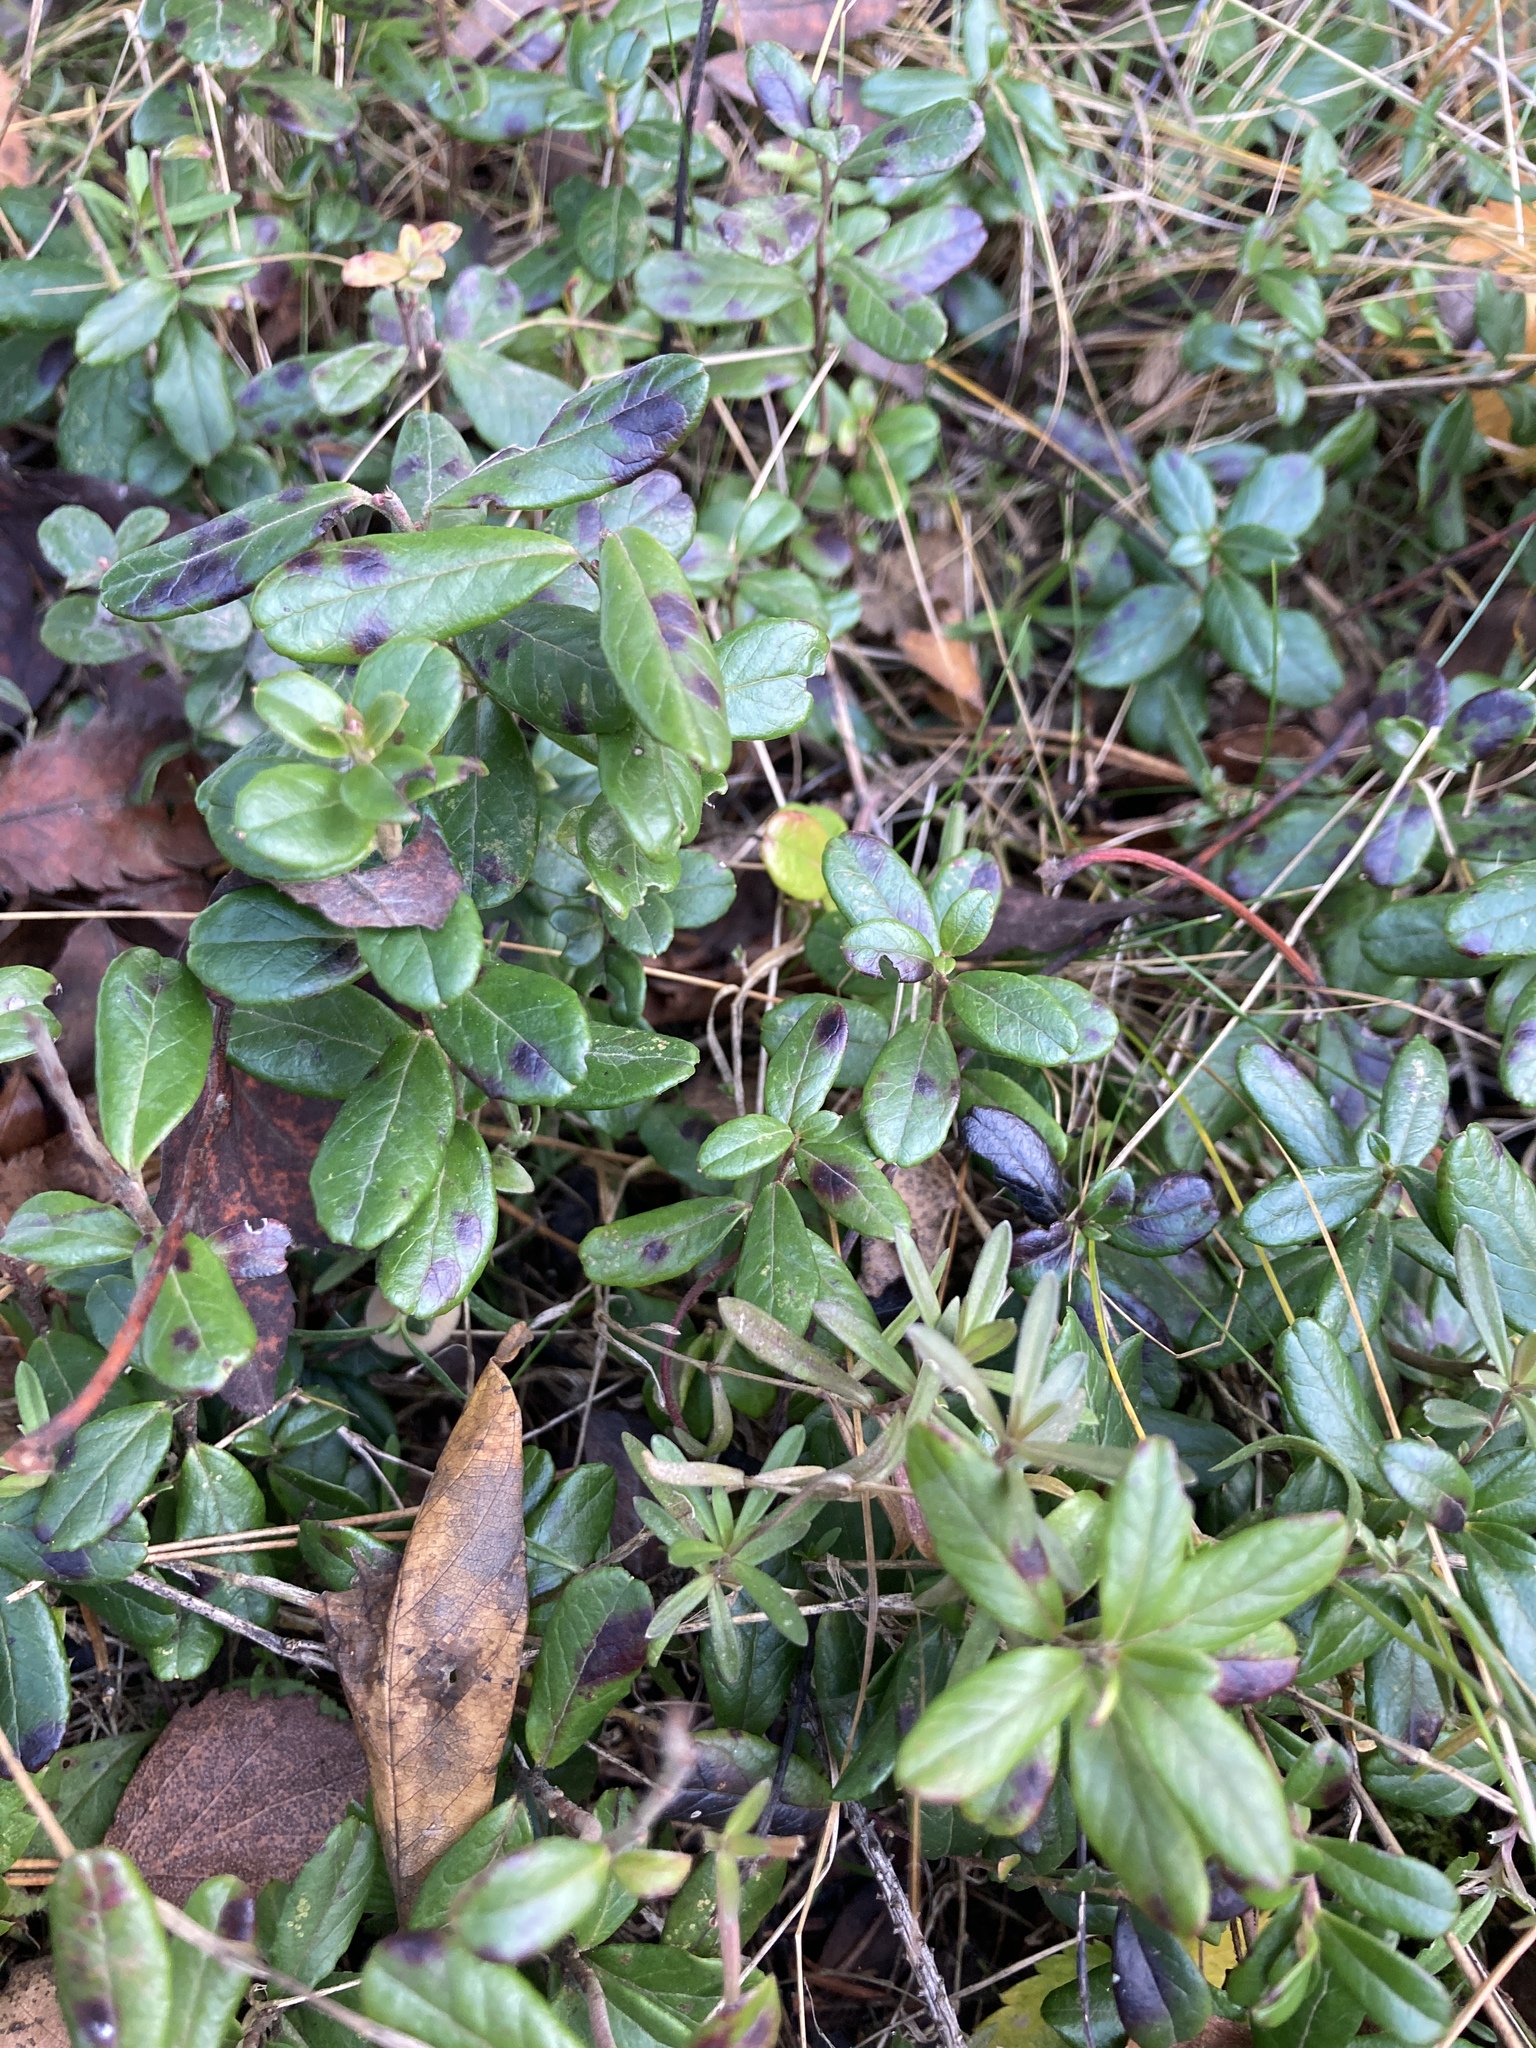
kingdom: Plantae
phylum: Tracheophyta
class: Magnoliopsida
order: Ericales
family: Ericaceae
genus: Vaccinium
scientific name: Vaccinium vitis-idaea
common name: Cowberry
